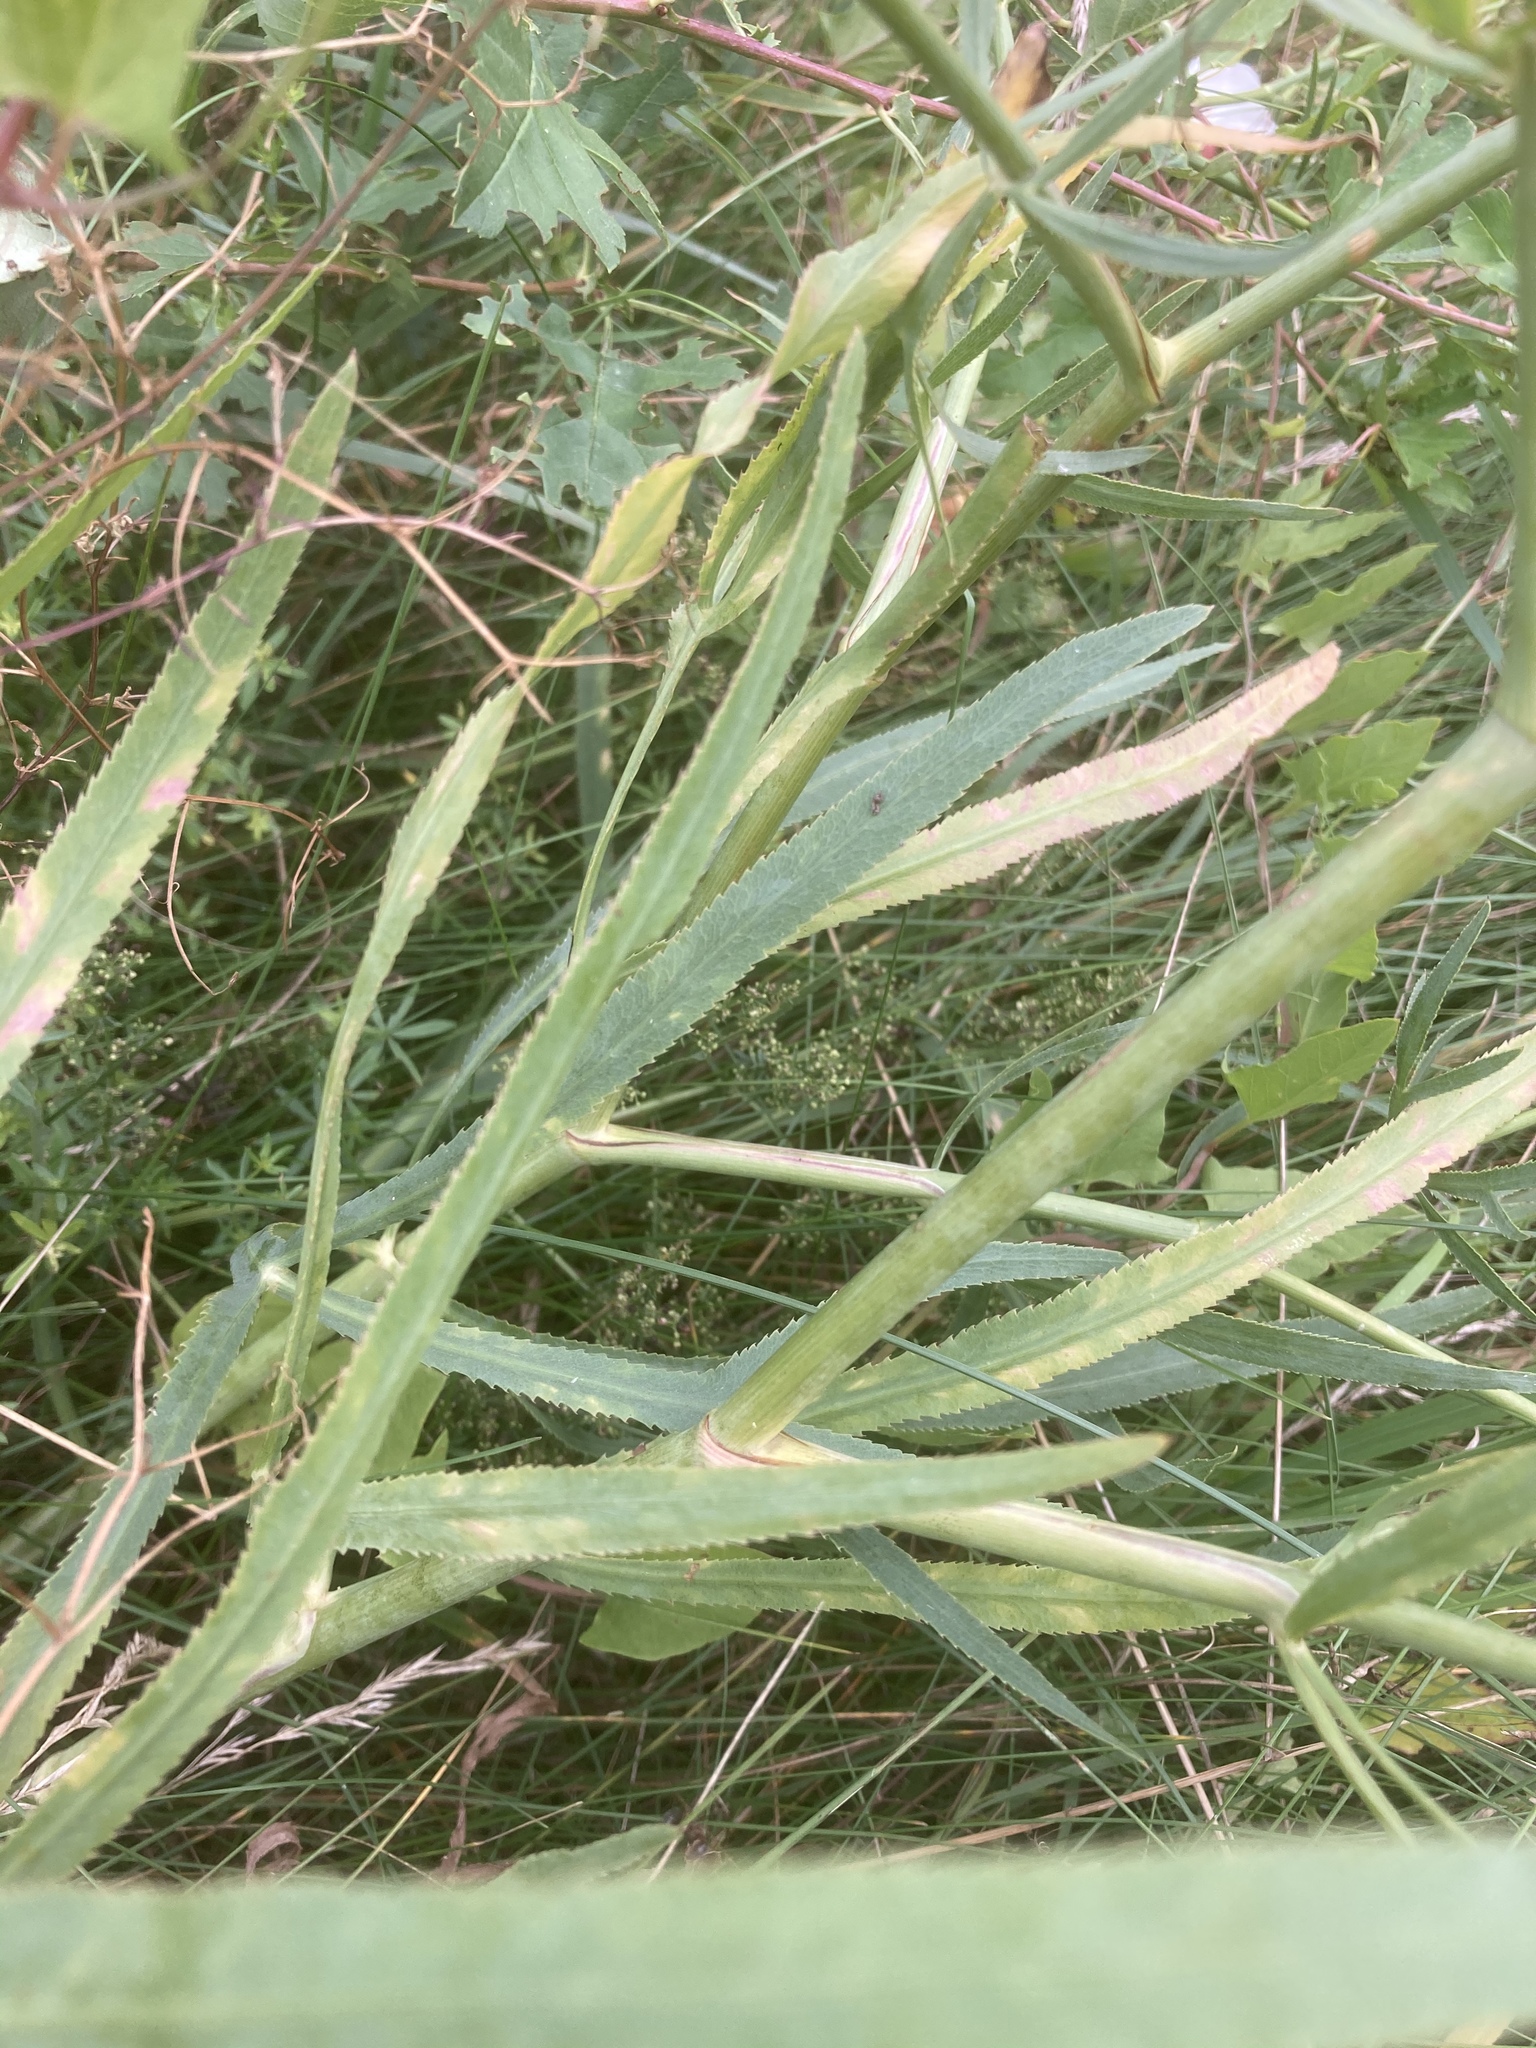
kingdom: Plantae
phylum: Tracheophyta
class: Magnoliopsida
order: Apiales
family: Apiaceae
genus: Falcaria
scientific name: Falcaria vulgaris
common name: Longleaf
